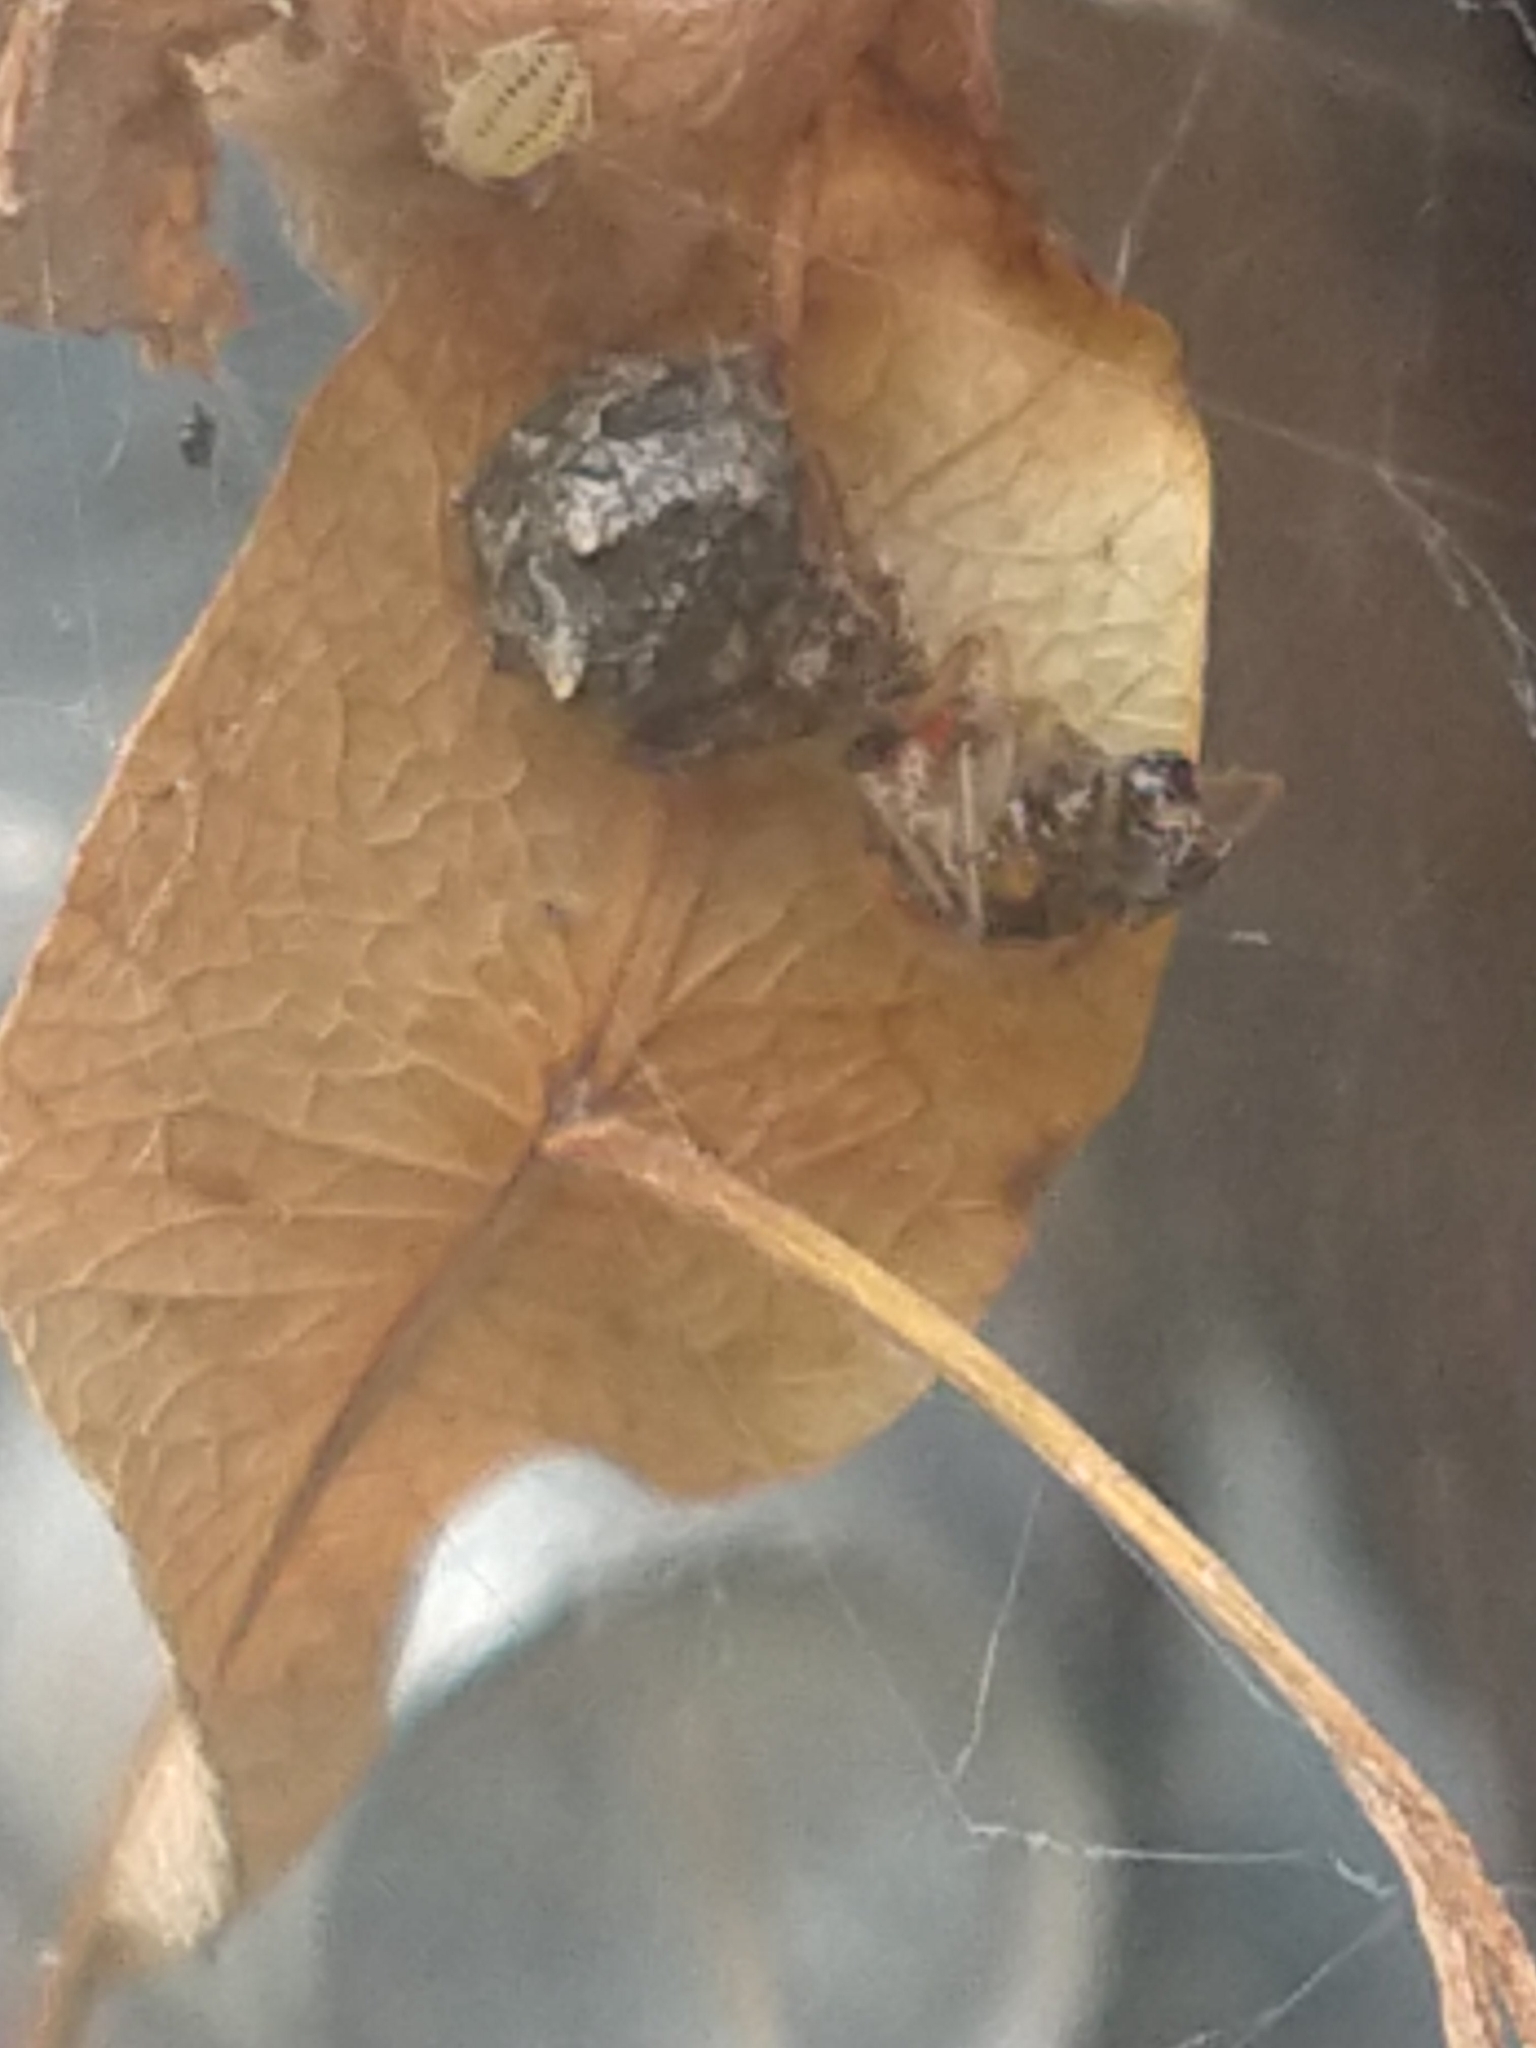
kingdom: Animalia
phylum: Arthropoda
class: Arachnida
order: Araneae
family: Mimetidae
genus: Ero
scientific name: Ero
